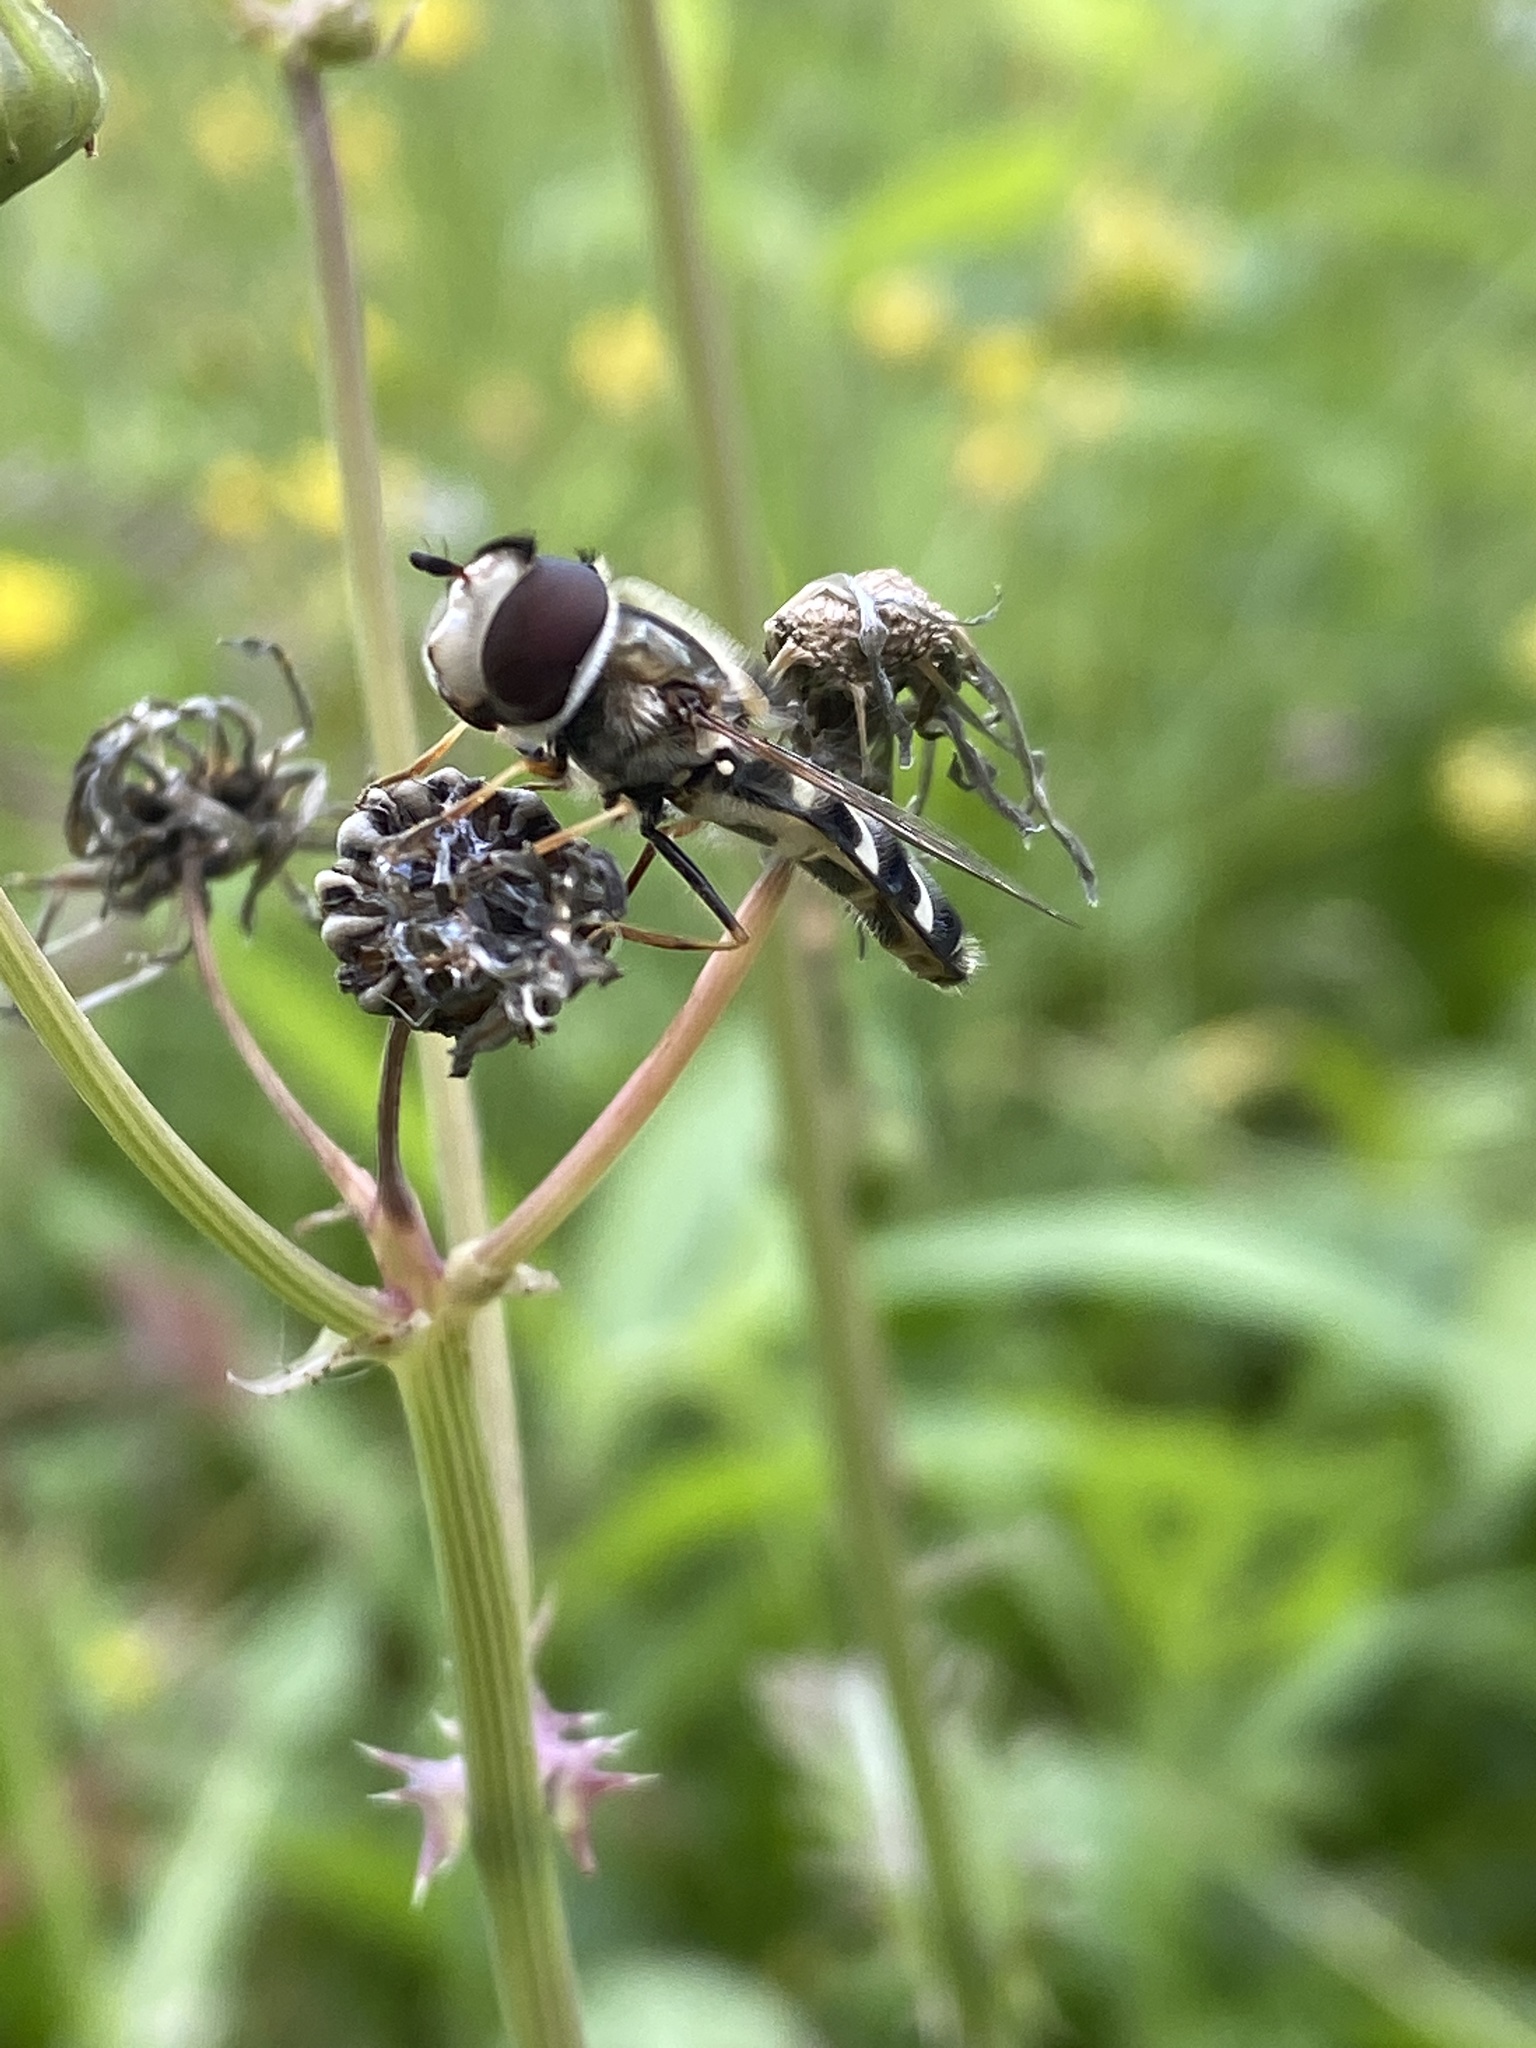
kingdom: Animalia
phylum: Arthropoda
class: Insecta
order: Diptera
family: Syrphidae
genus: Scaeva
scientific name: Scaeva pyrastri
